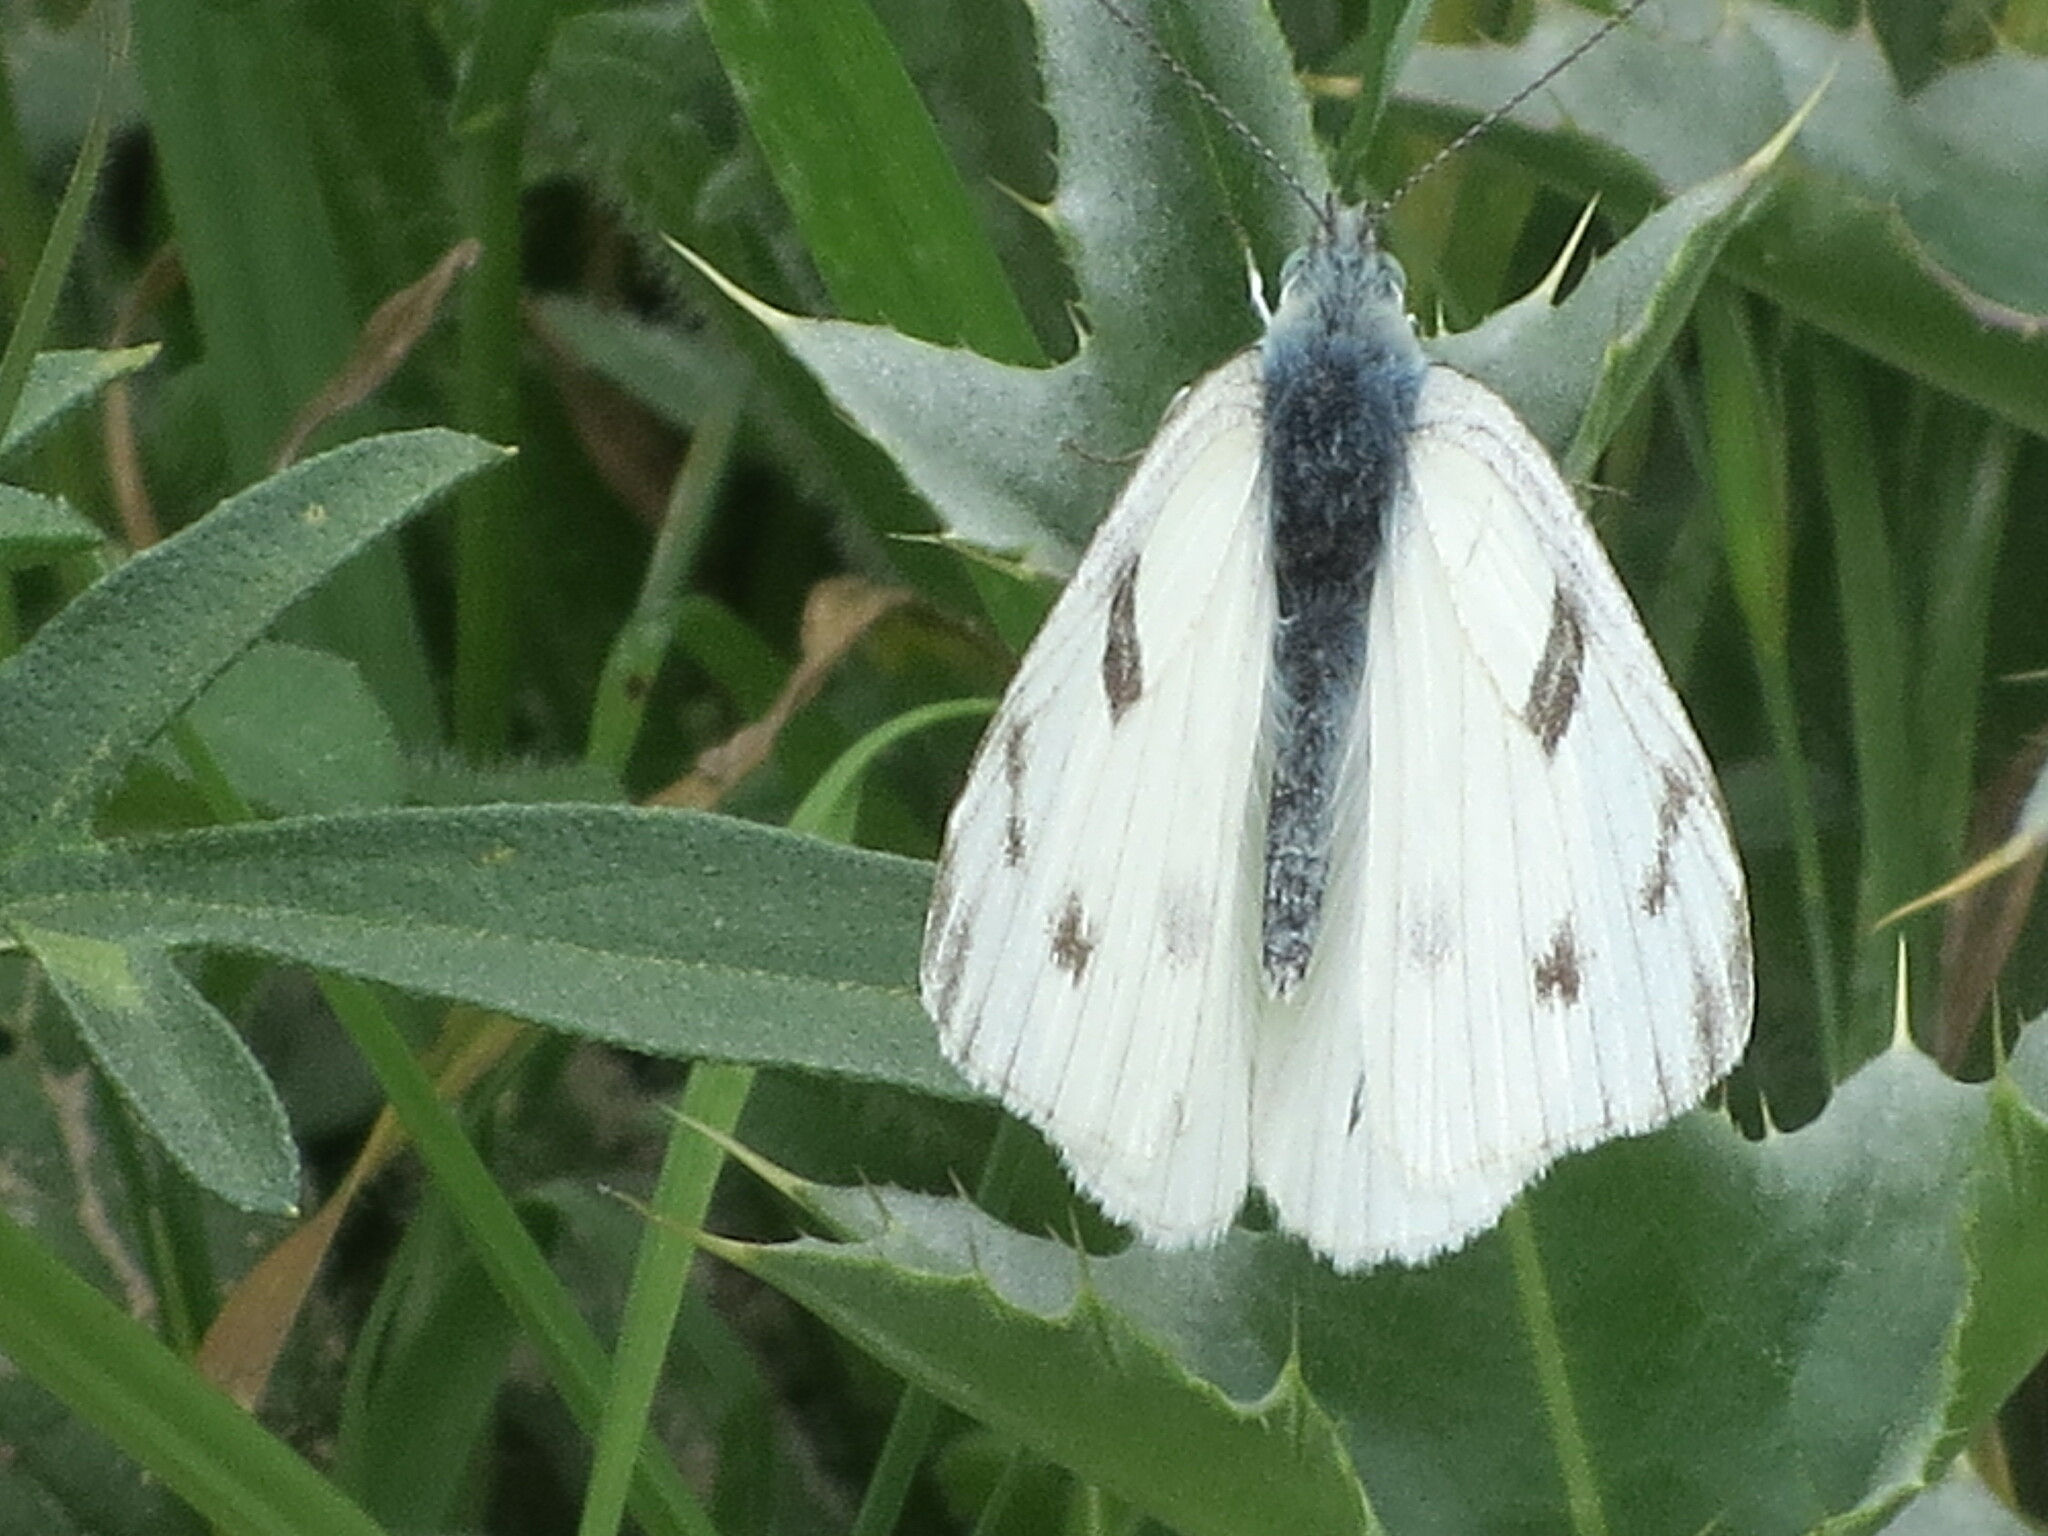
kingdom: Animalia
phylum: Arthropoda
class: Insecta
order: Lepidoptera
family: Pieridae
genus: Pontia
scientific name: Pontia protodice
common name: Checkered white
